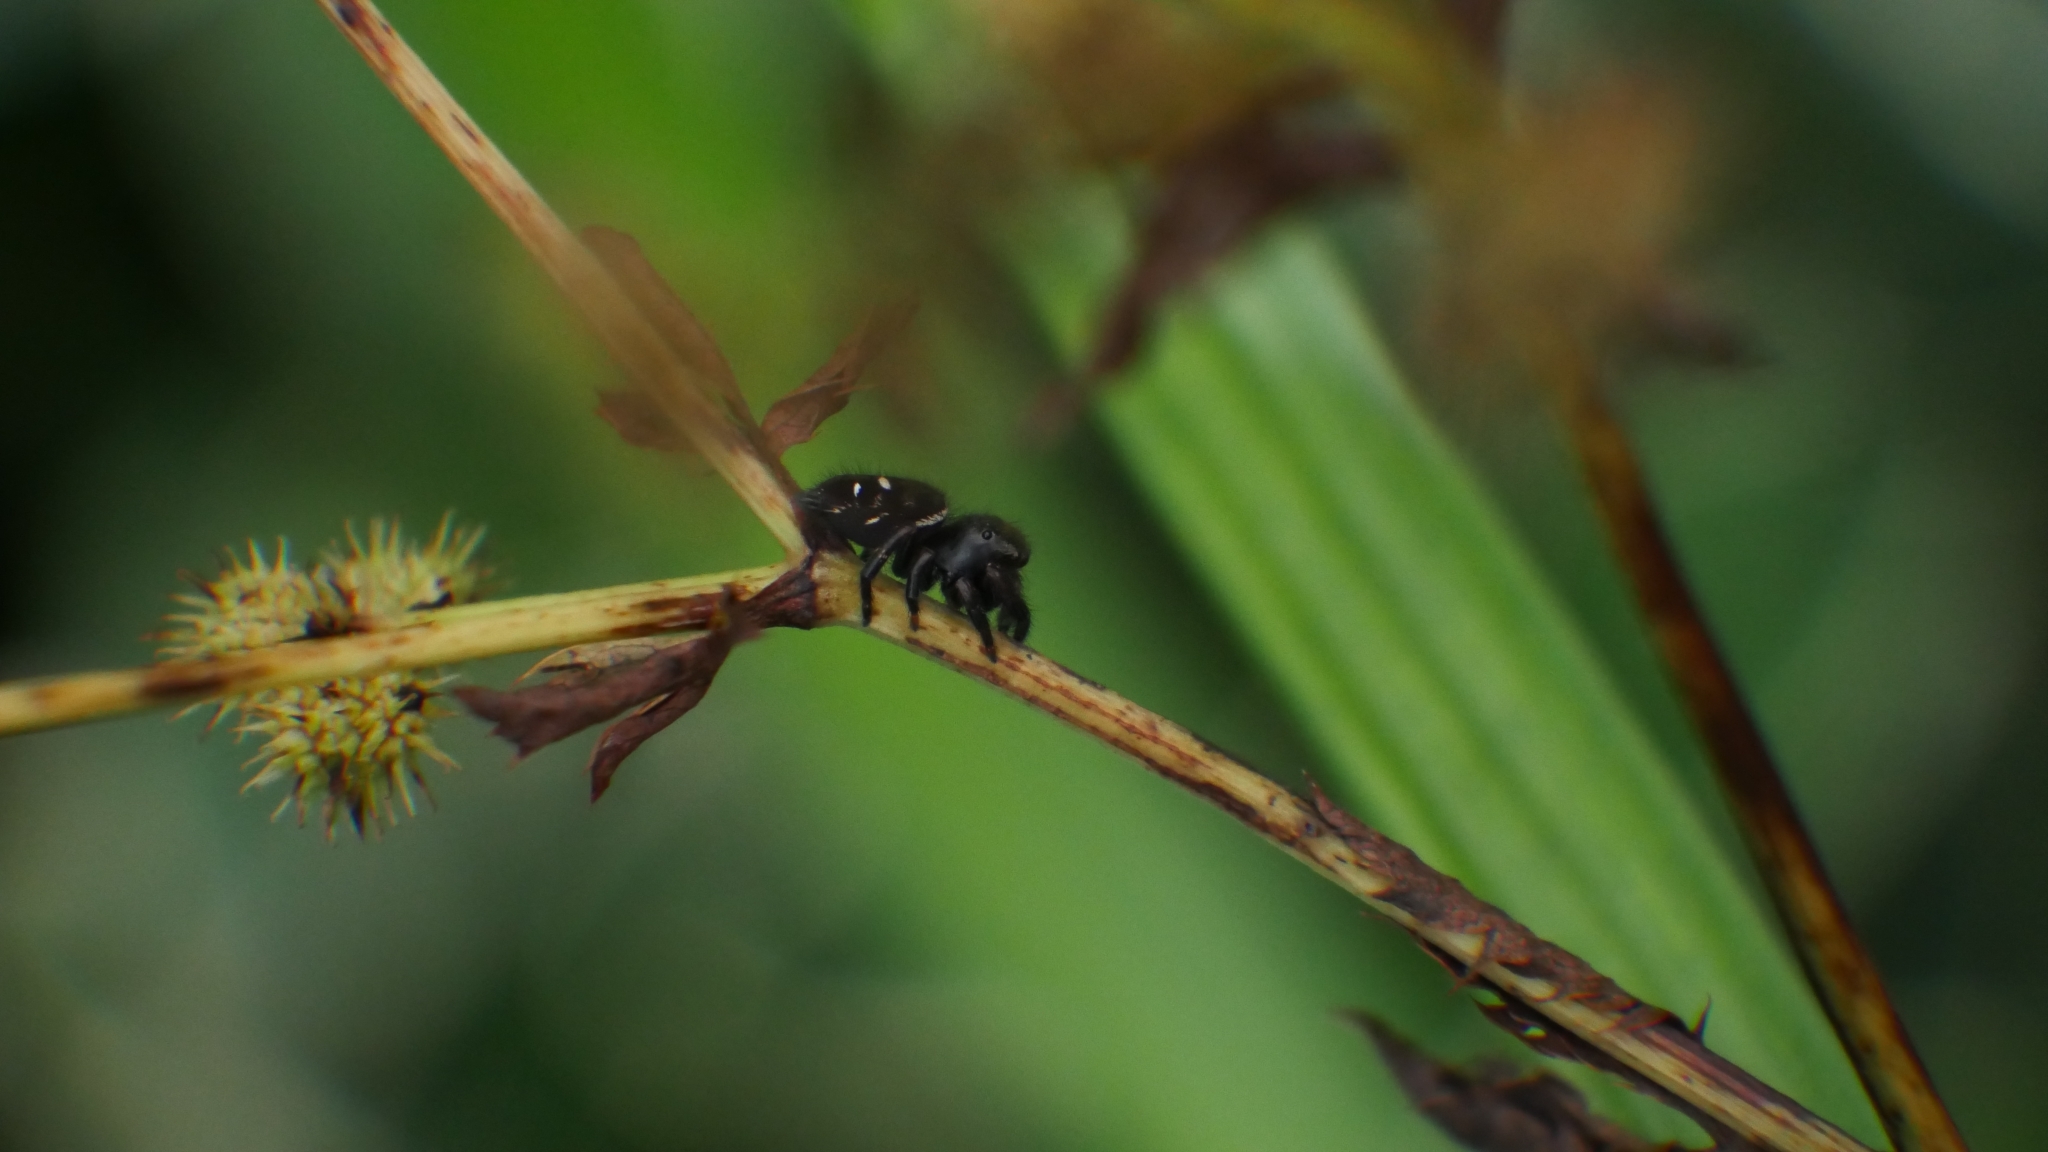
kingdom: Animalia
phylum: Arthropoda
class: Arachnida
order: Araneae
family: Salticidae
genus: Phidippus
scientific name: Phidippus audax
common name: Bold jumper
